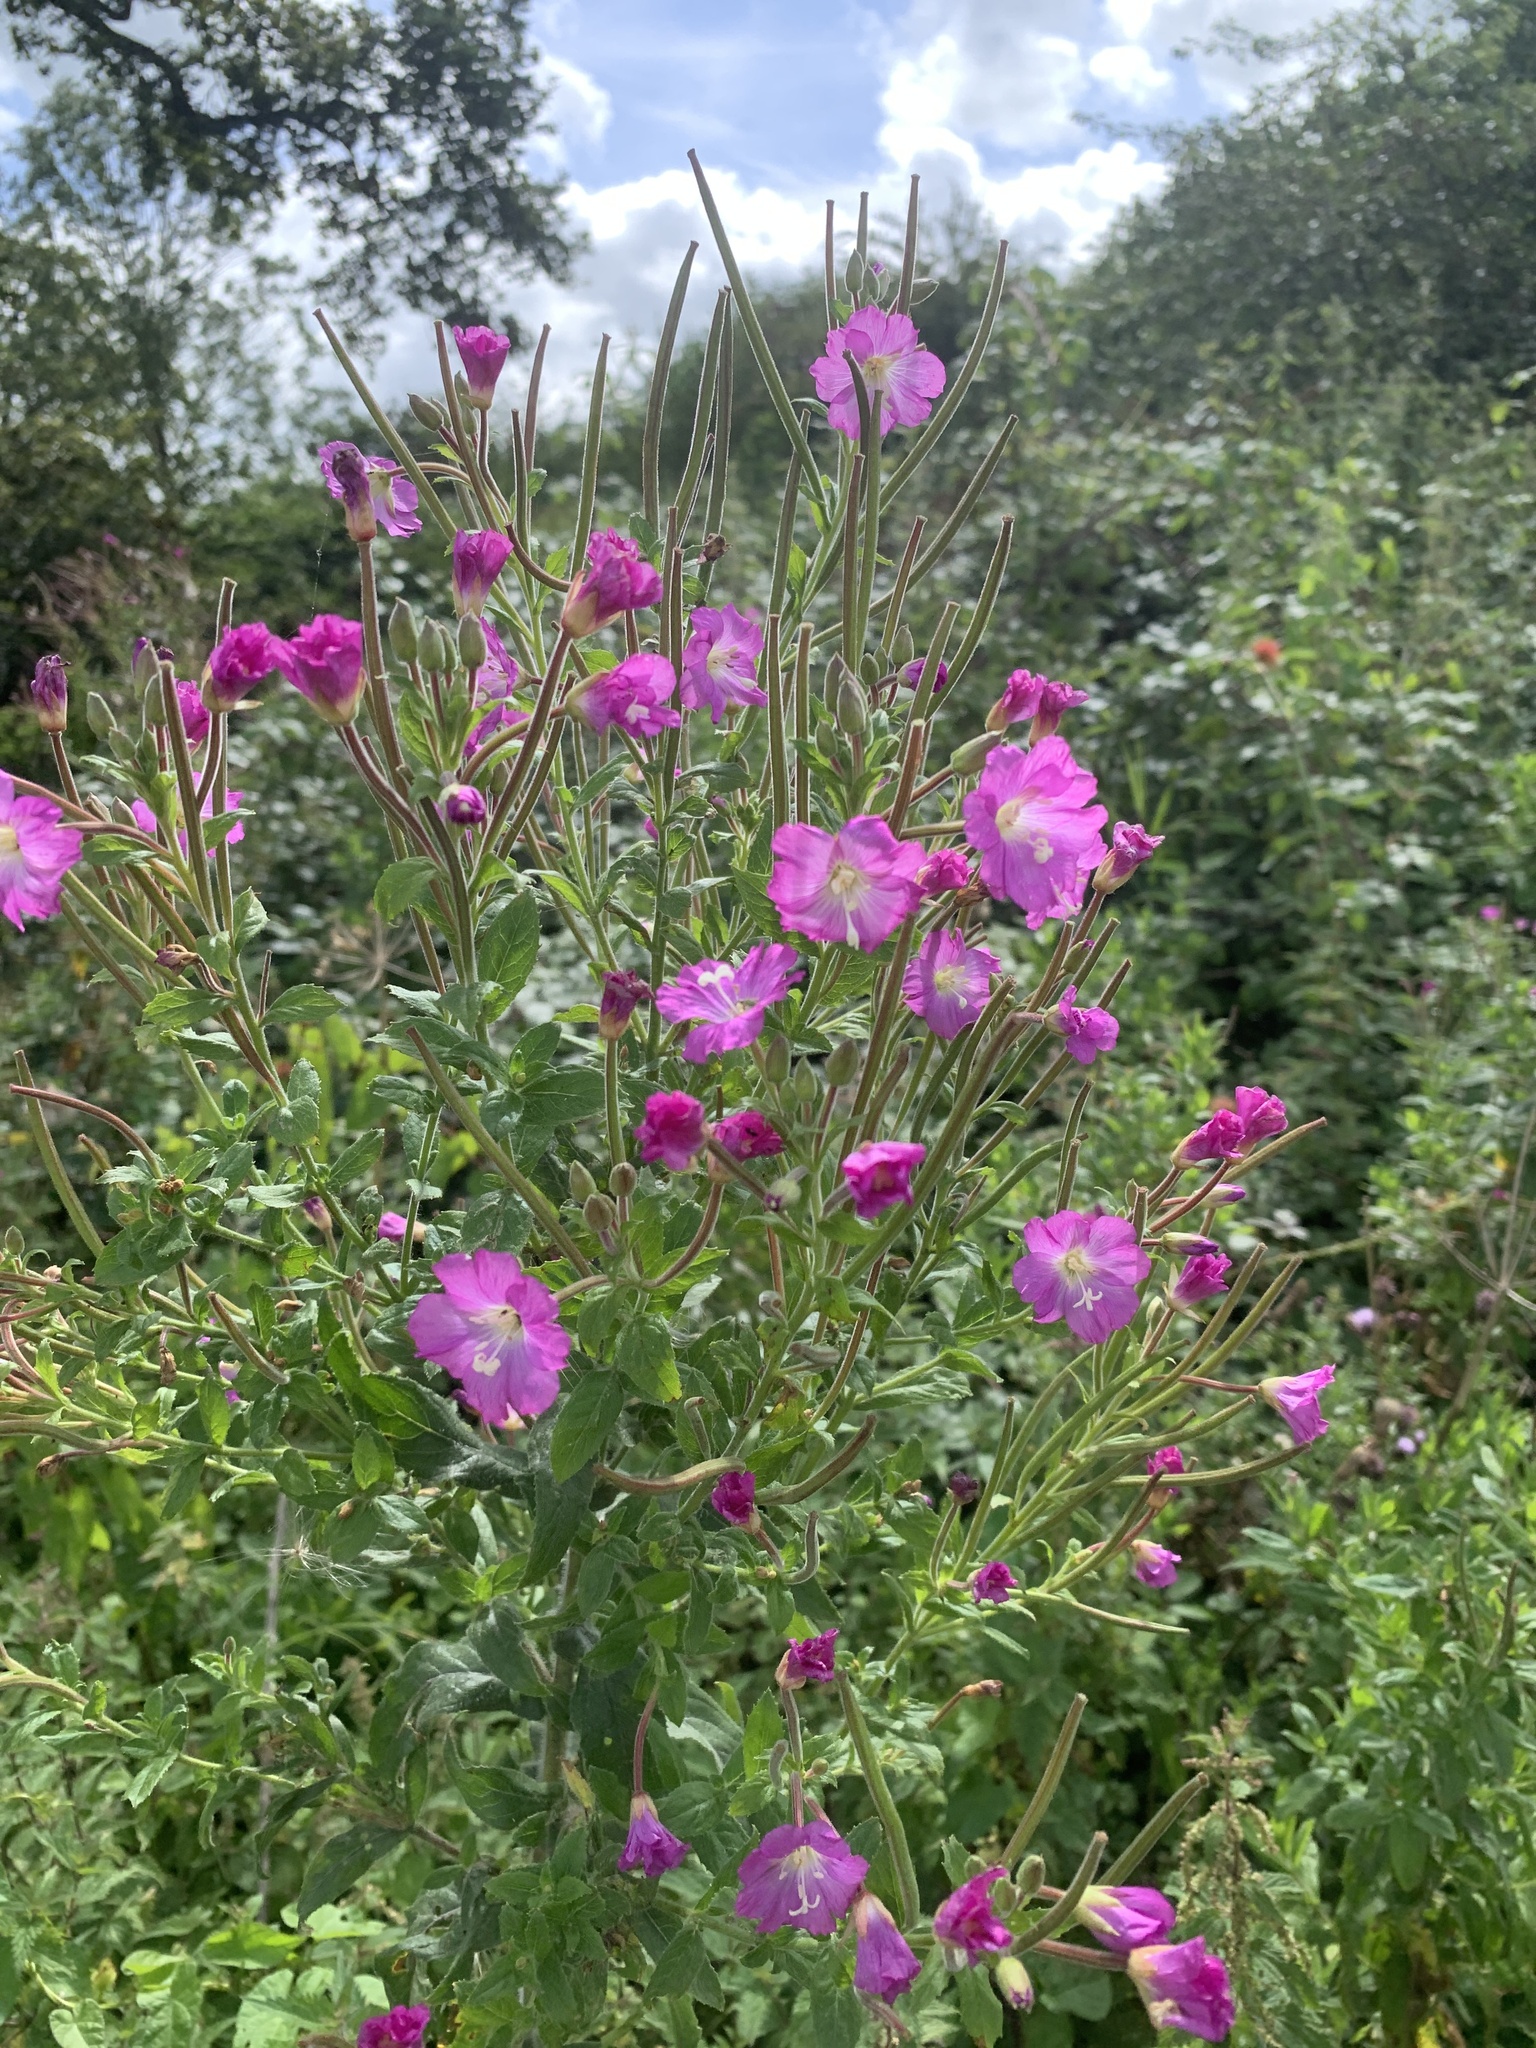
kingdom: Plantae
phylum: Tracheophyta
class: Magnoliopsida
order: Myrtales
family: Onagraceae
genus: Epilobium
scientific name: Epilobium hirsutum
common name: Great willowherb
